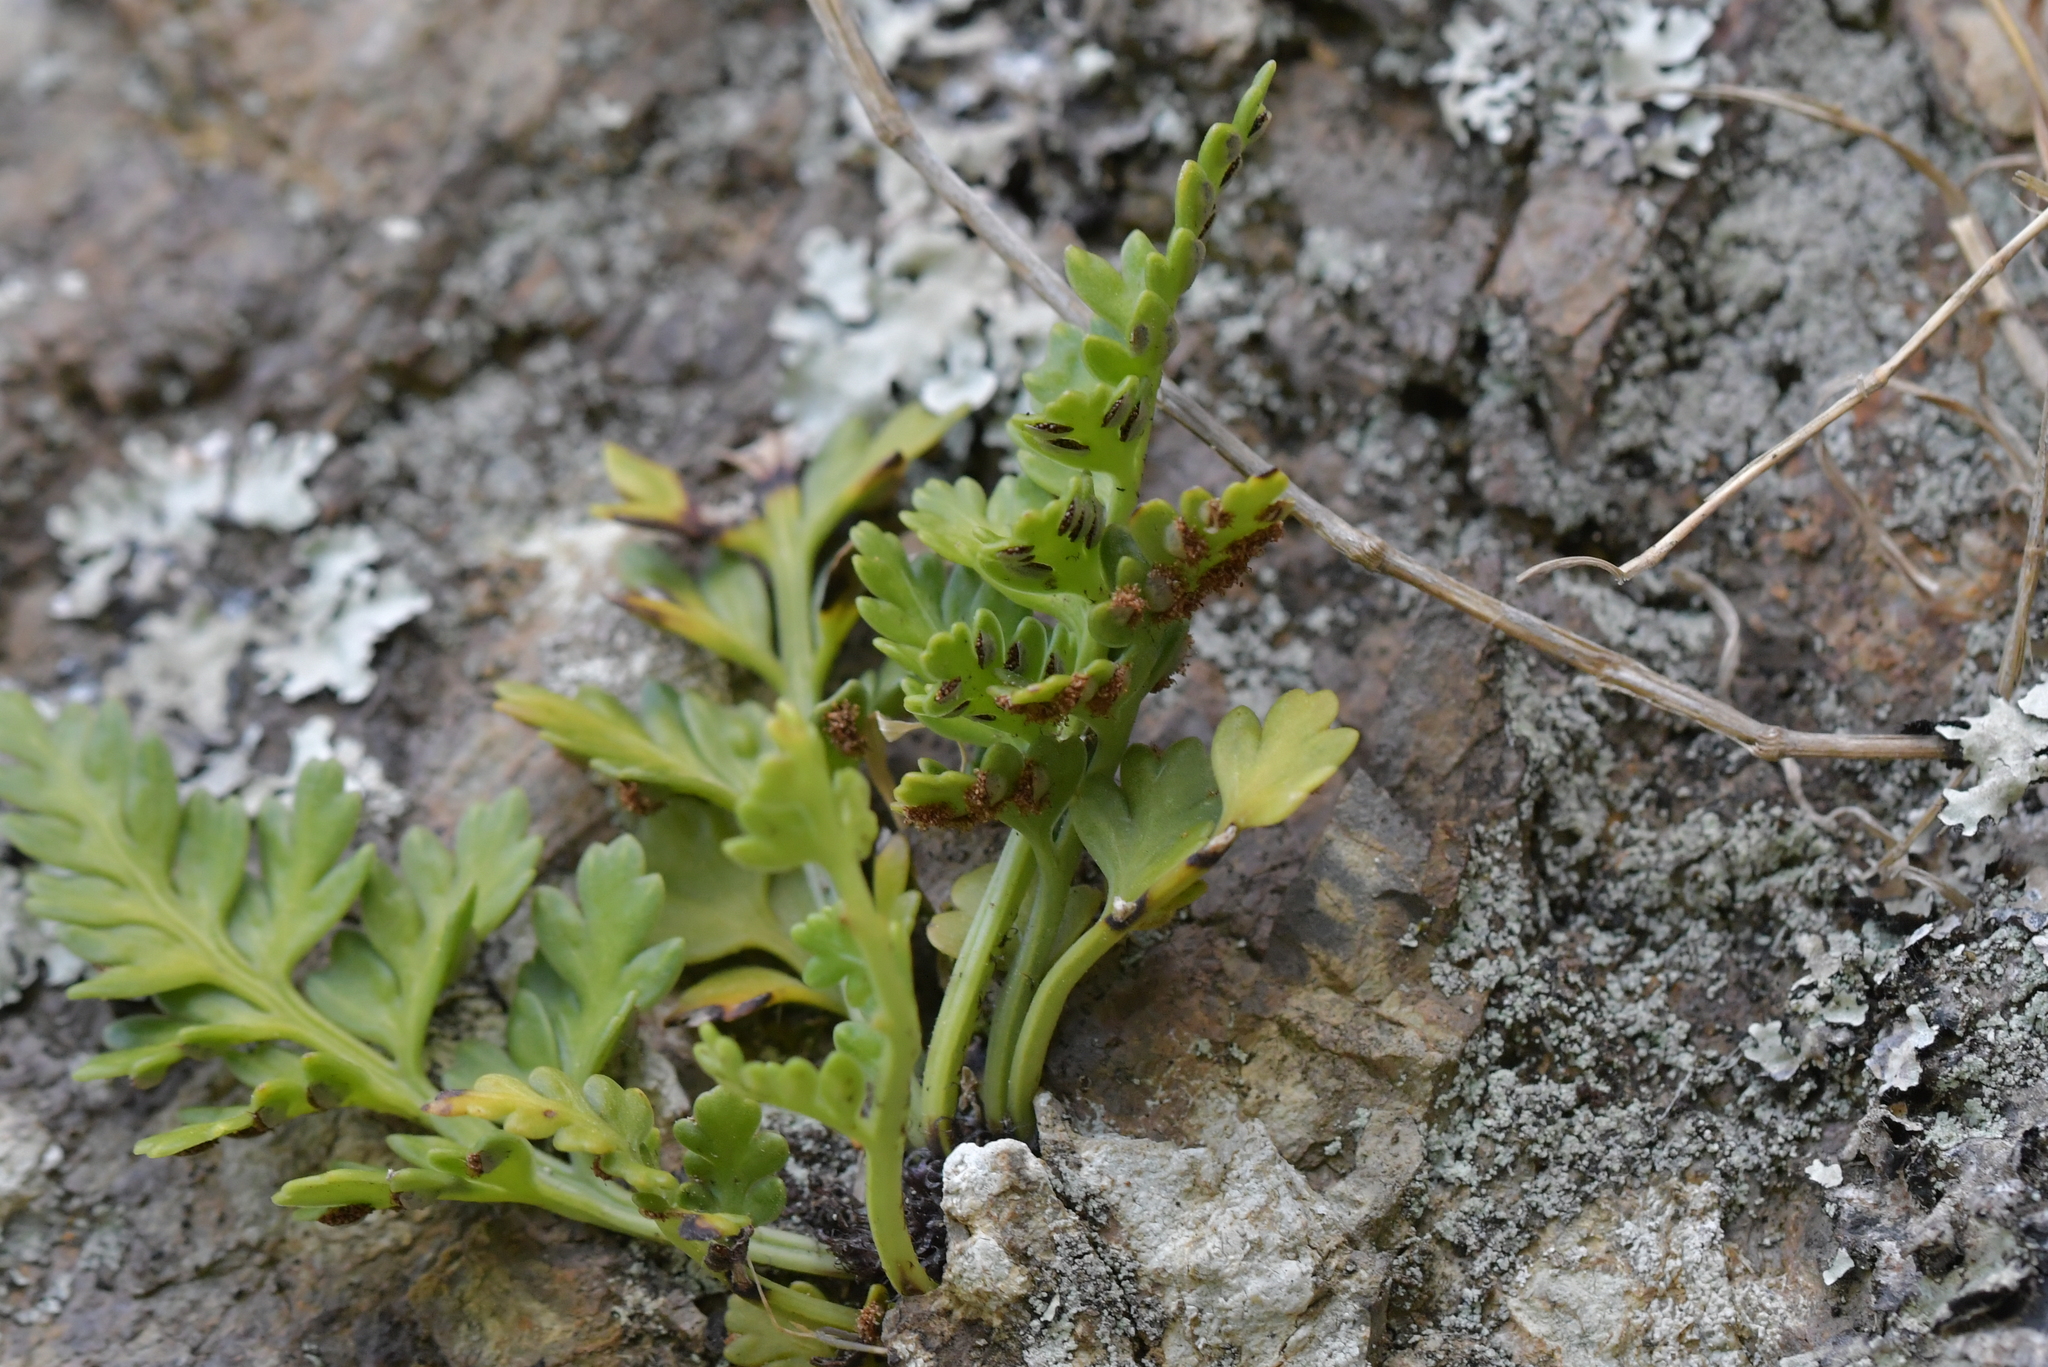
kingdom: Plantae
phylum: Tracheophyta
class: Polypodiopsida
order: Polypodiales
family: Aspleniaceae
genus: Asplenium
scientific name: Asplenium appendiculatum
